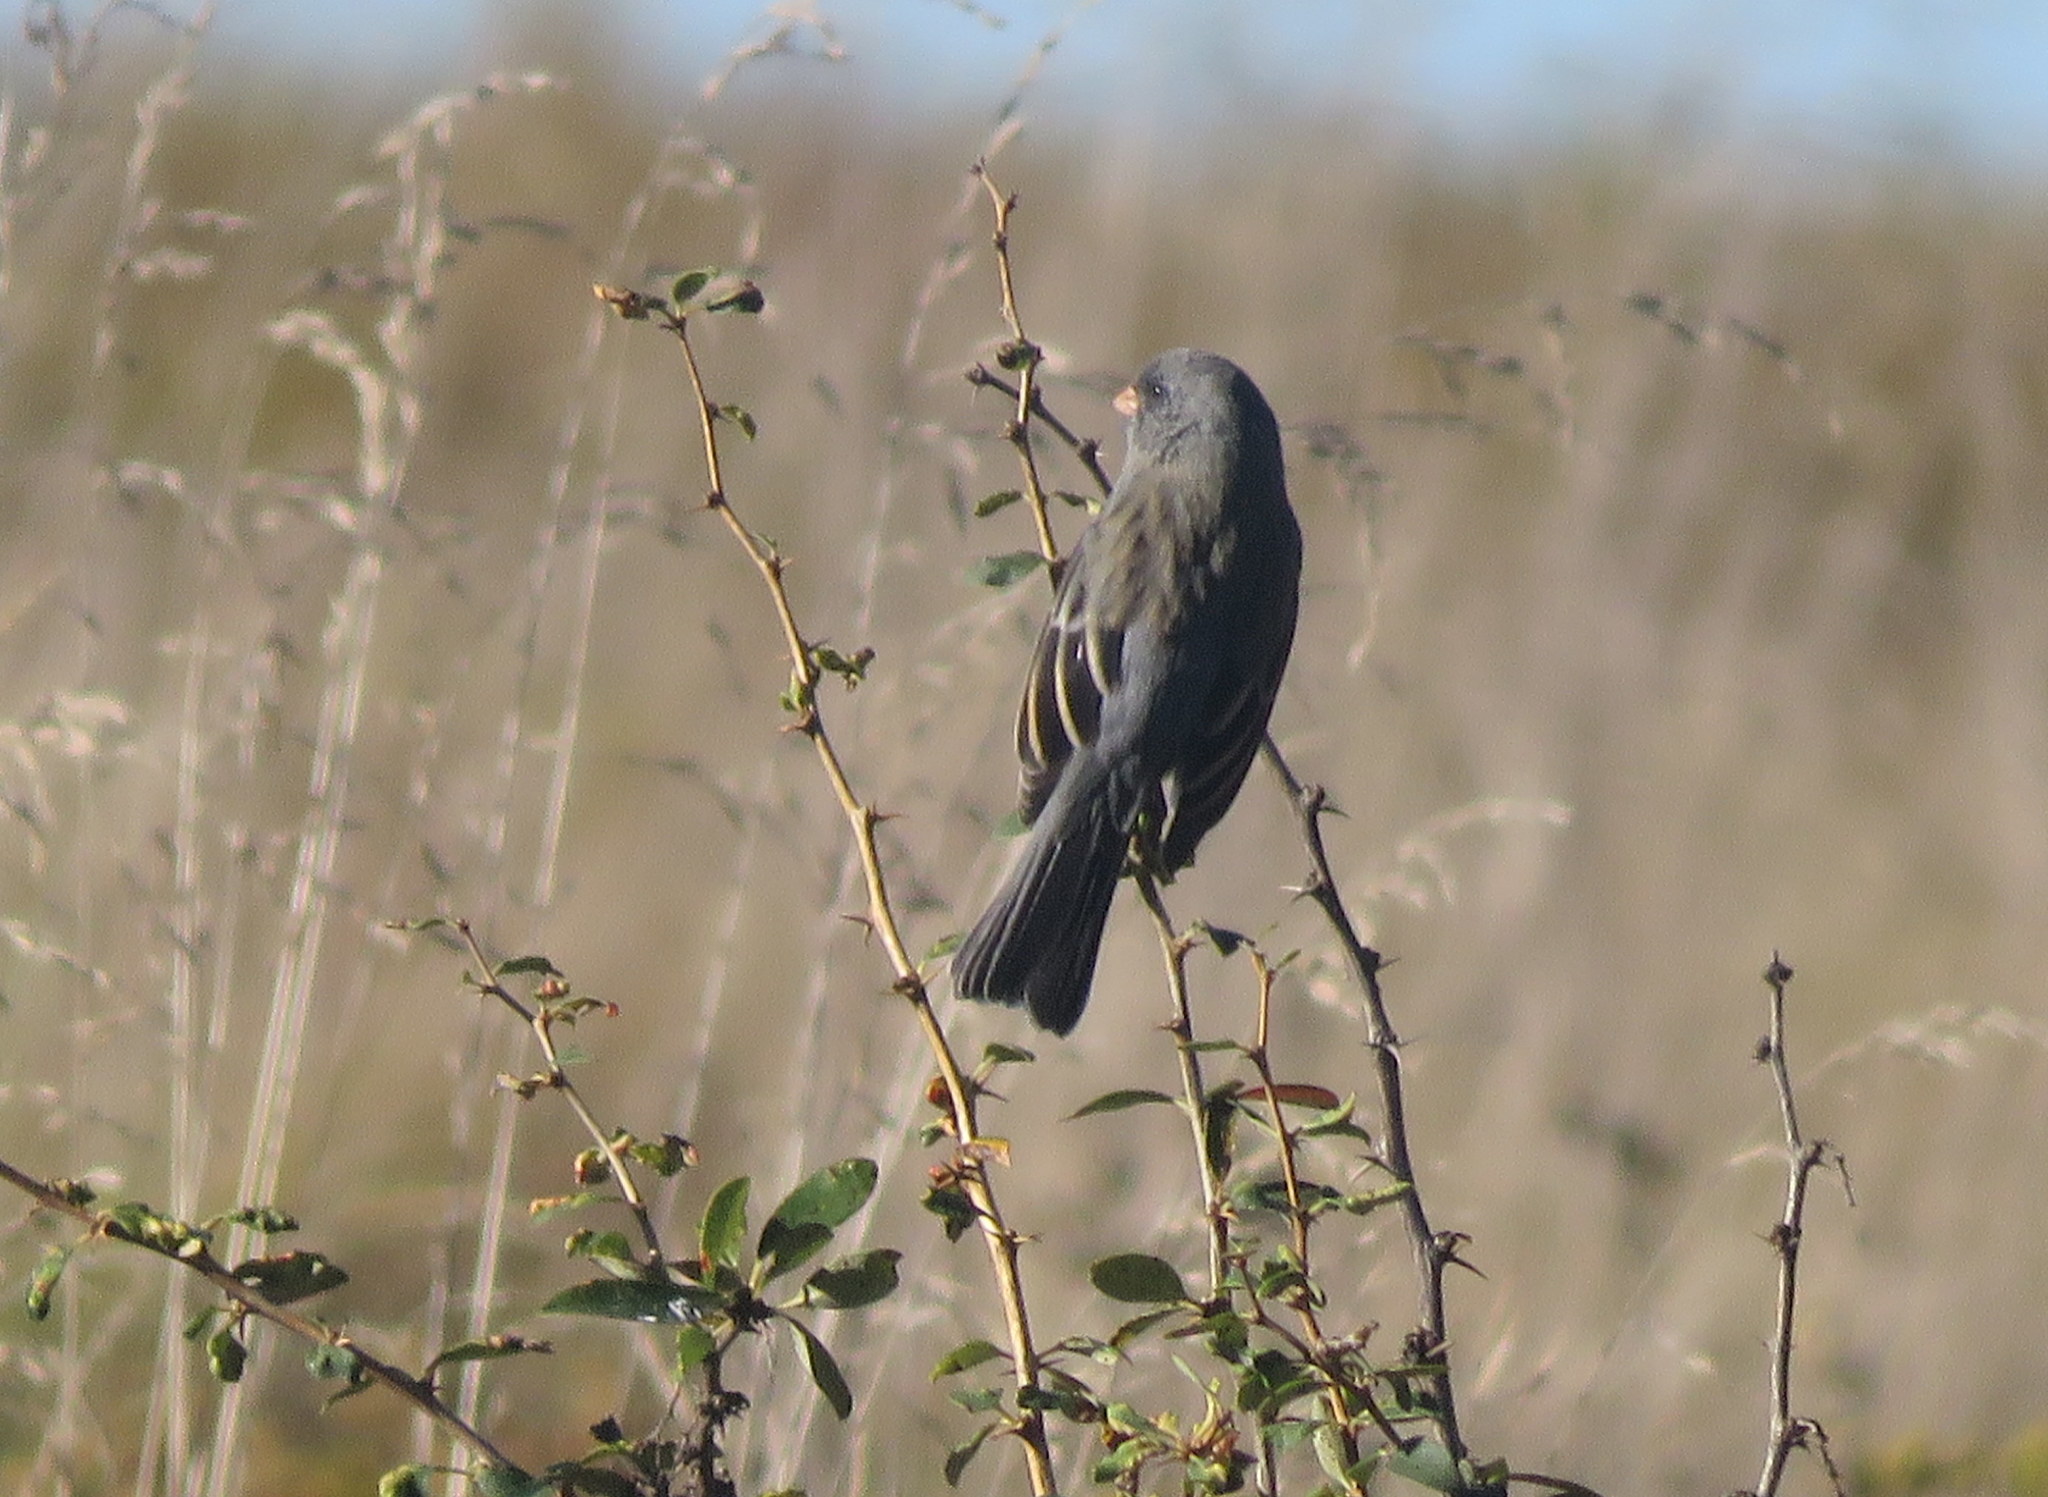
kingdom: Animalia
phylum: Chordata
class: Aves
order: Passeriformes
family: Thraupidae
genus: Catamenia
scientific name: Catamenia inornata
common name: Plain-colored seedeater
